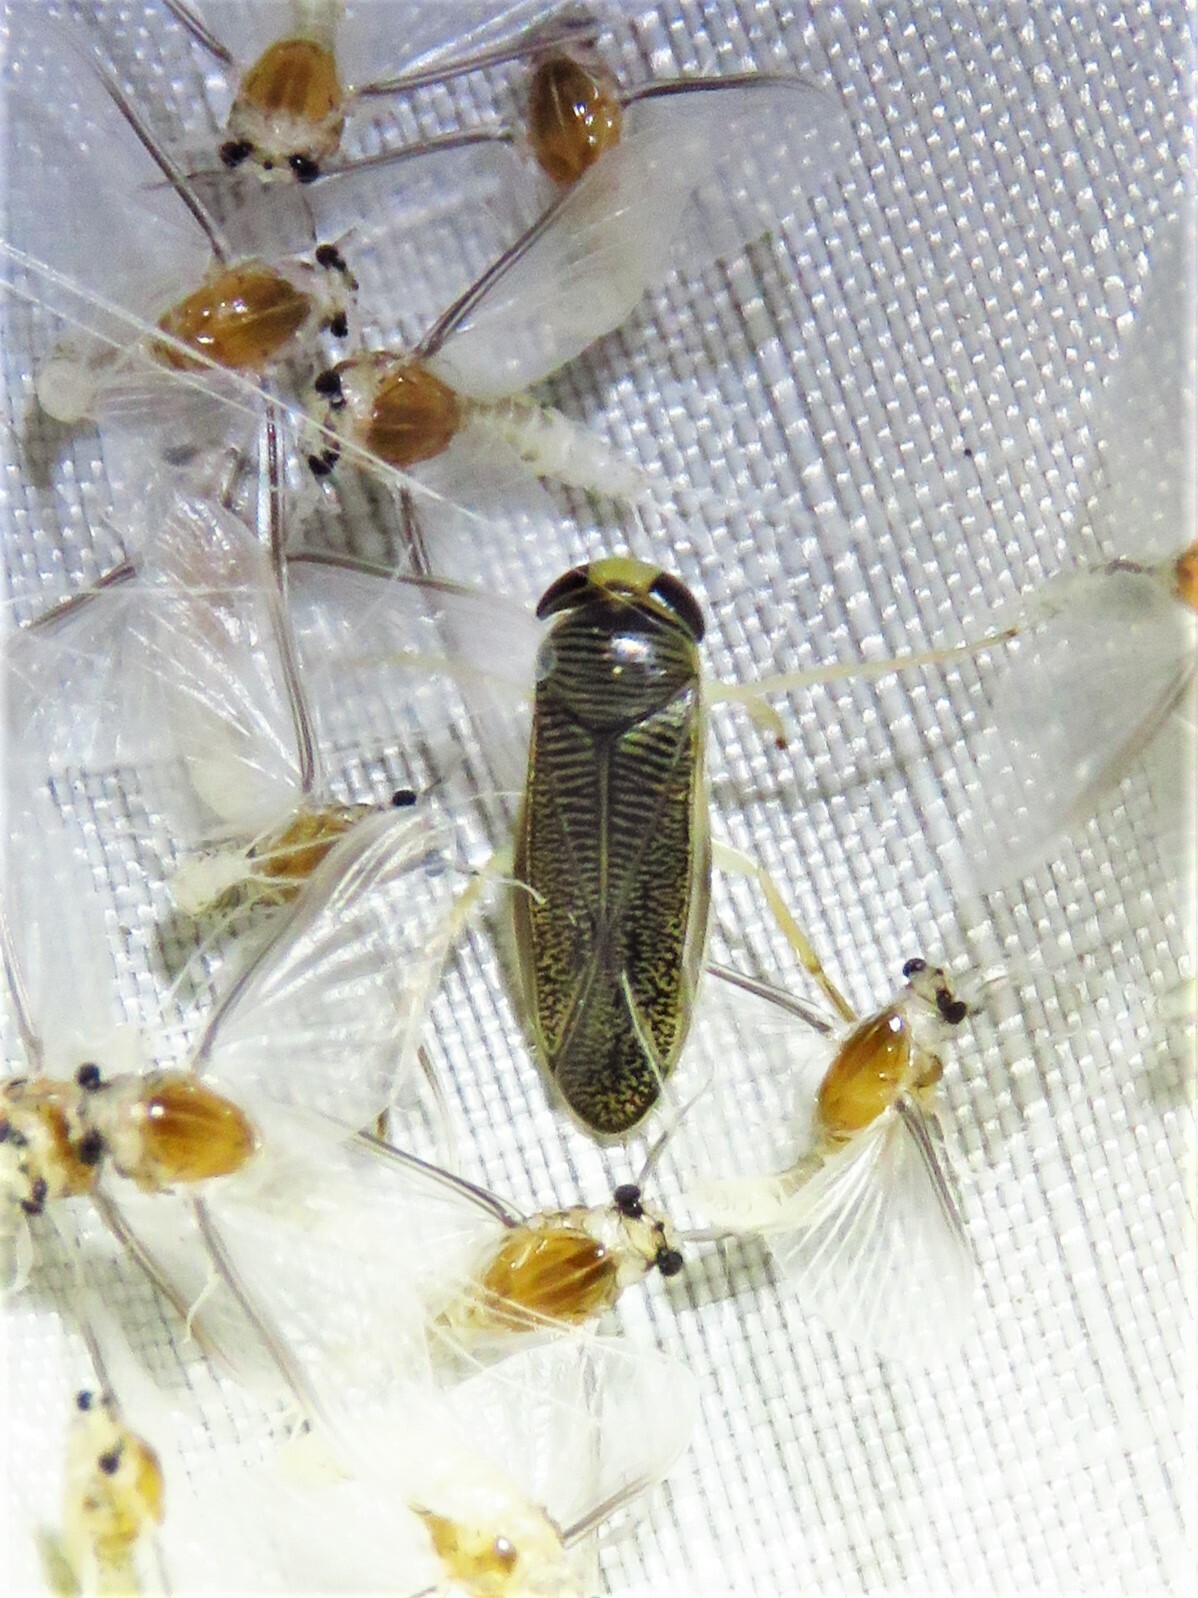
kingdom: Animalia
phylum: Arthropoda
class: Insecta
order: Hemiptera
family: Corixidae
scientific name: Corixidae
